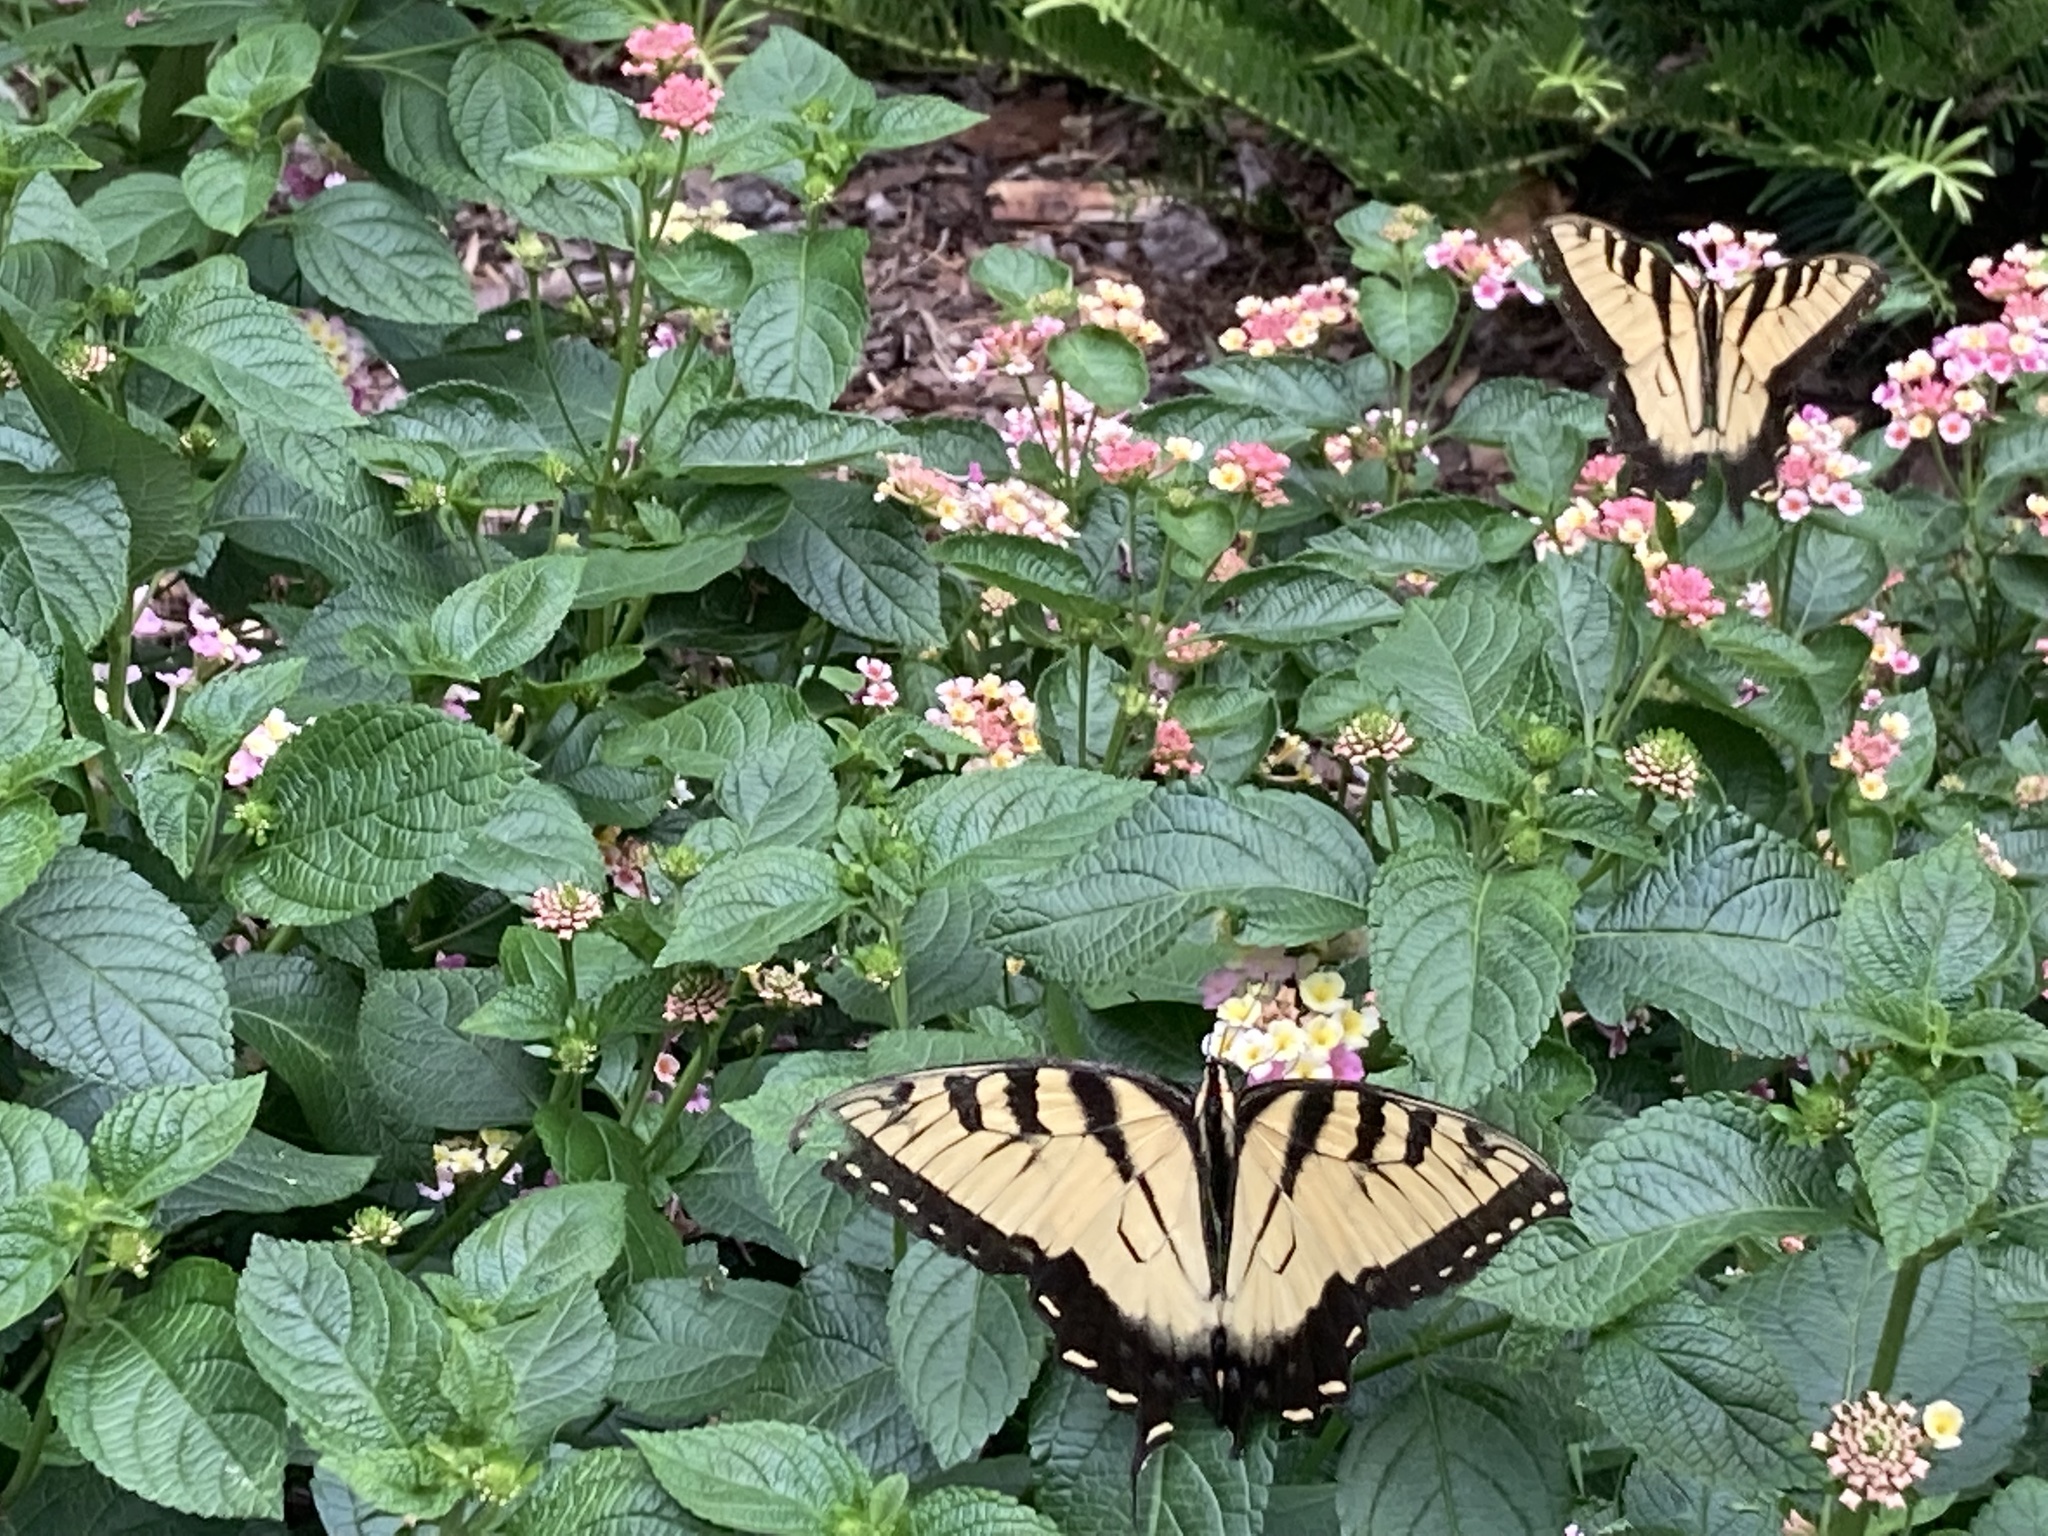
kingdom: Animalia
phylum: Arthropoda
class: Insecta
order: Lepidoptera
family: Papilionidae
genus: Papilio
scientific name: Papilio glaucus
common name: Tiger swallowtail
